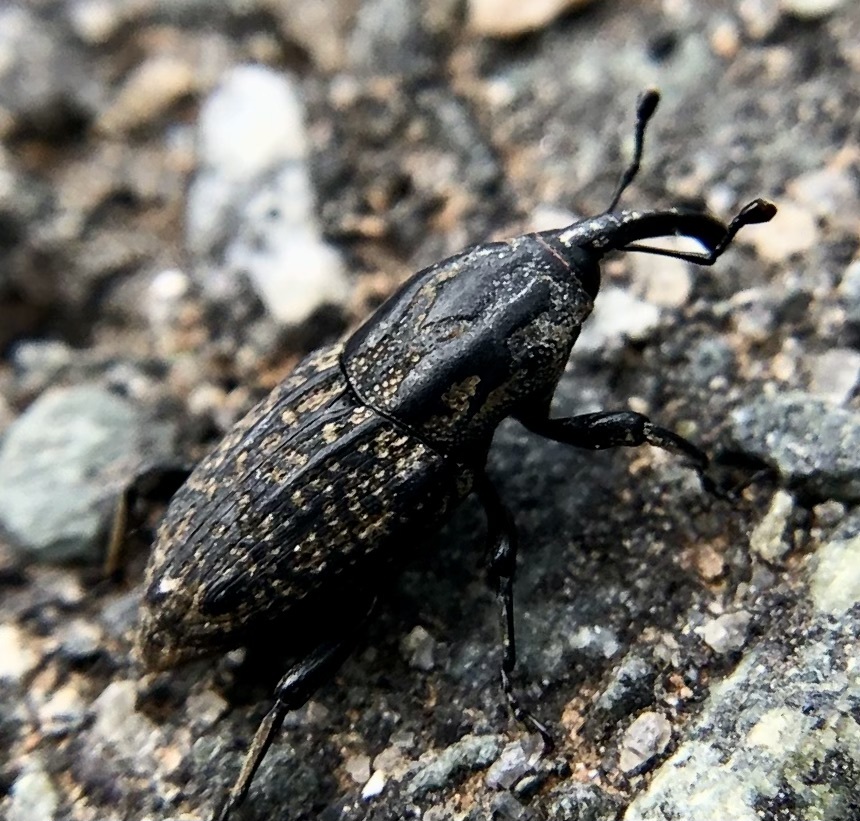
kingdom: Animalia
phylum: Arthropoda
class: Insecta
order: Coleoptera
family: Dryophthoridae
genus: Sphenophorus
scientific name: Sphenophorus cariosus
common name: Weevil
